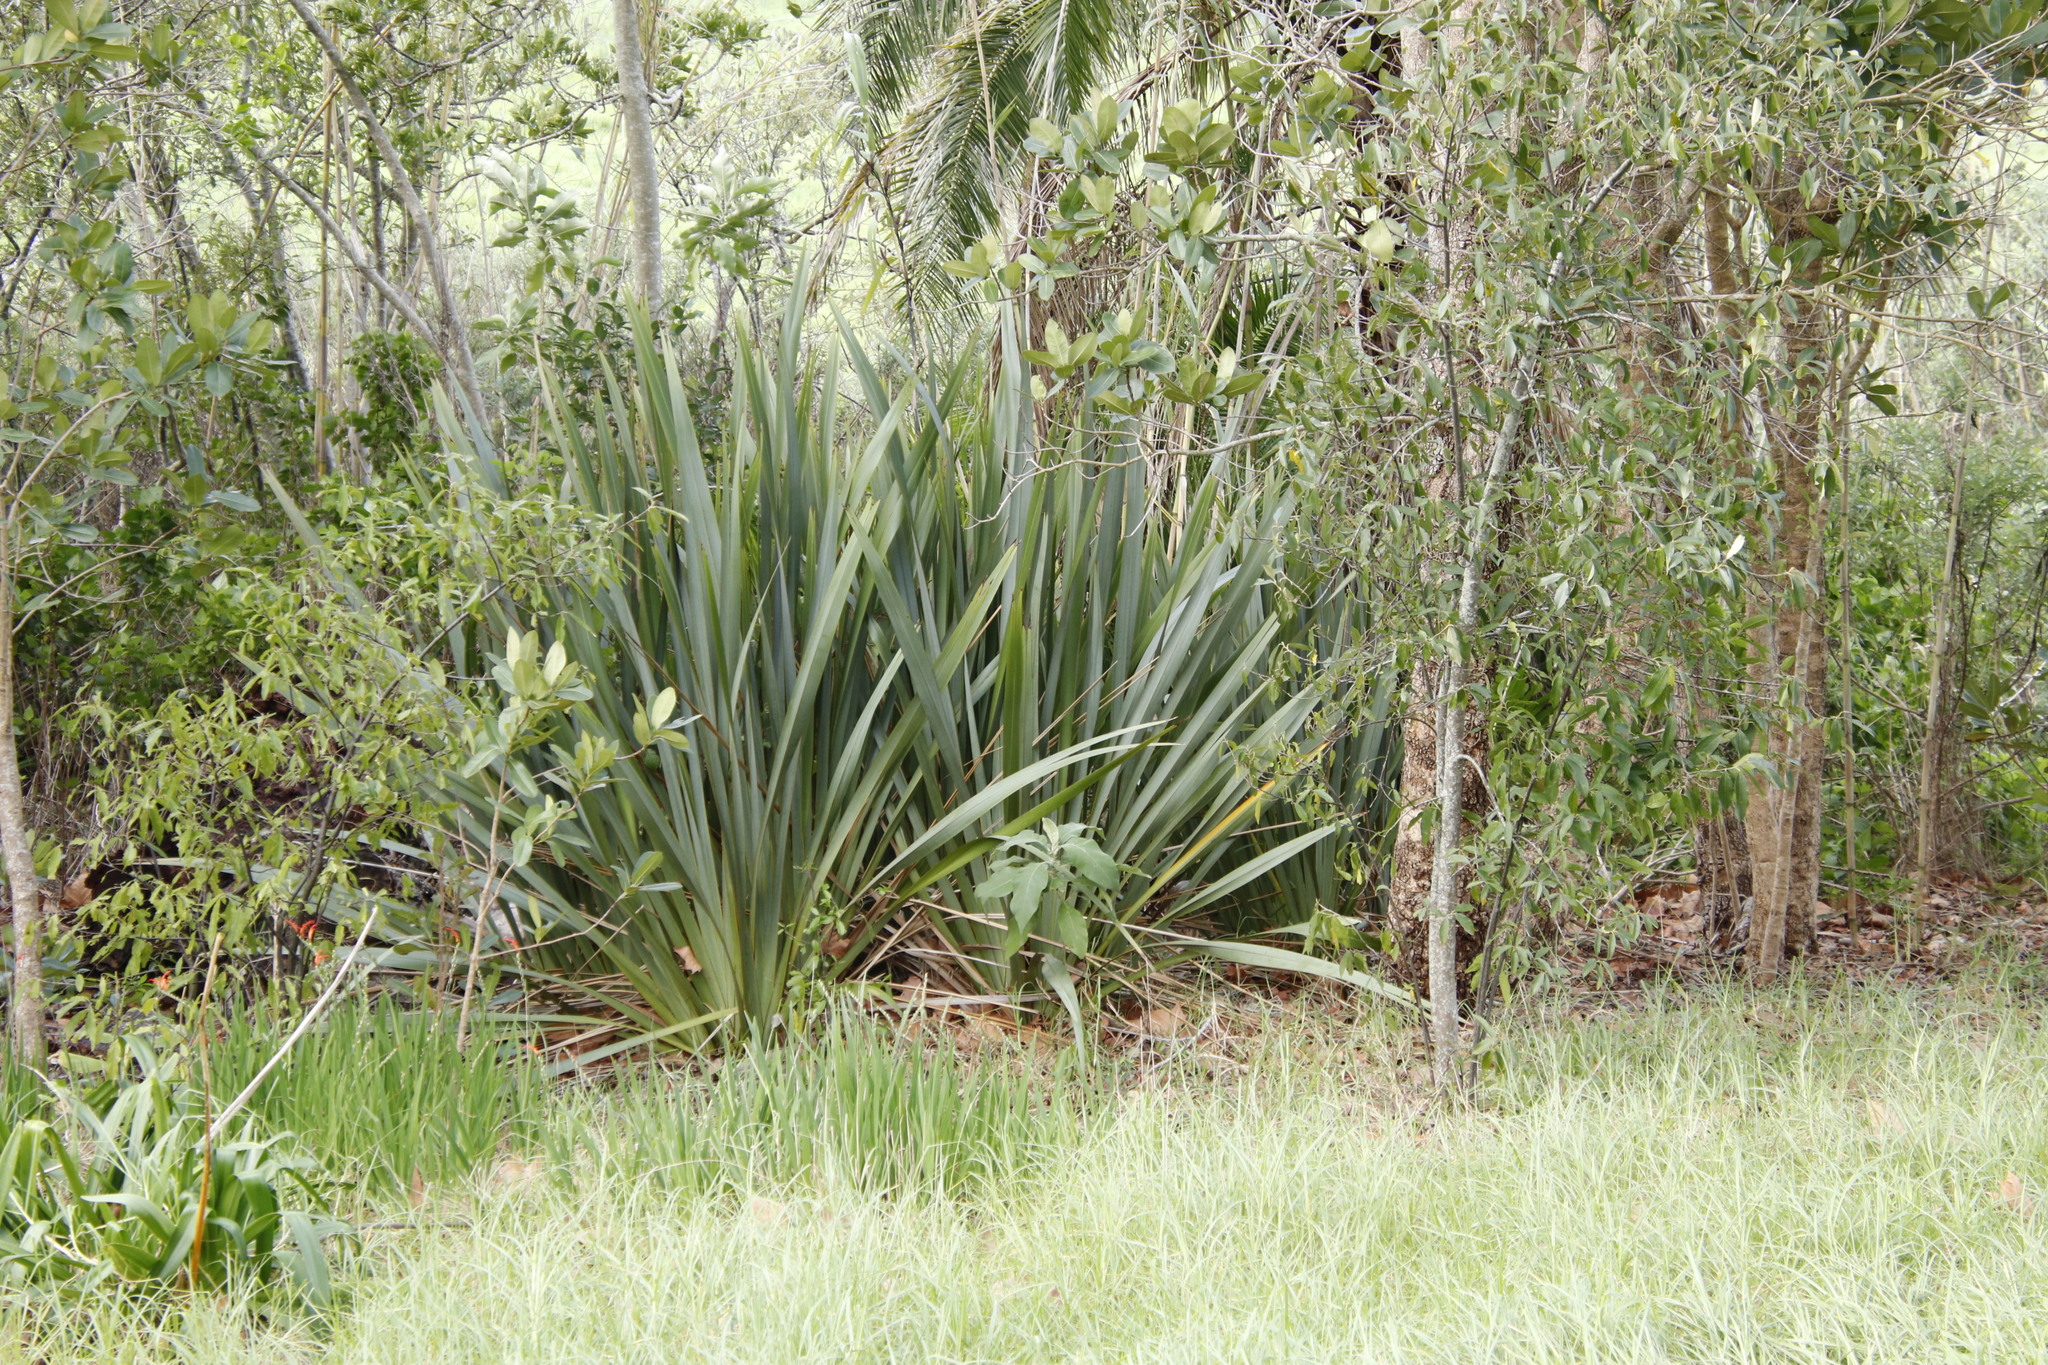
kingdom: Plantae
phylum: Tracheophyta
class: Liliopsida
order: Asparagales
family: Asphodelaceae
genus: Phormium
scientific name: Phormium tenax
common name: New zealand flax
